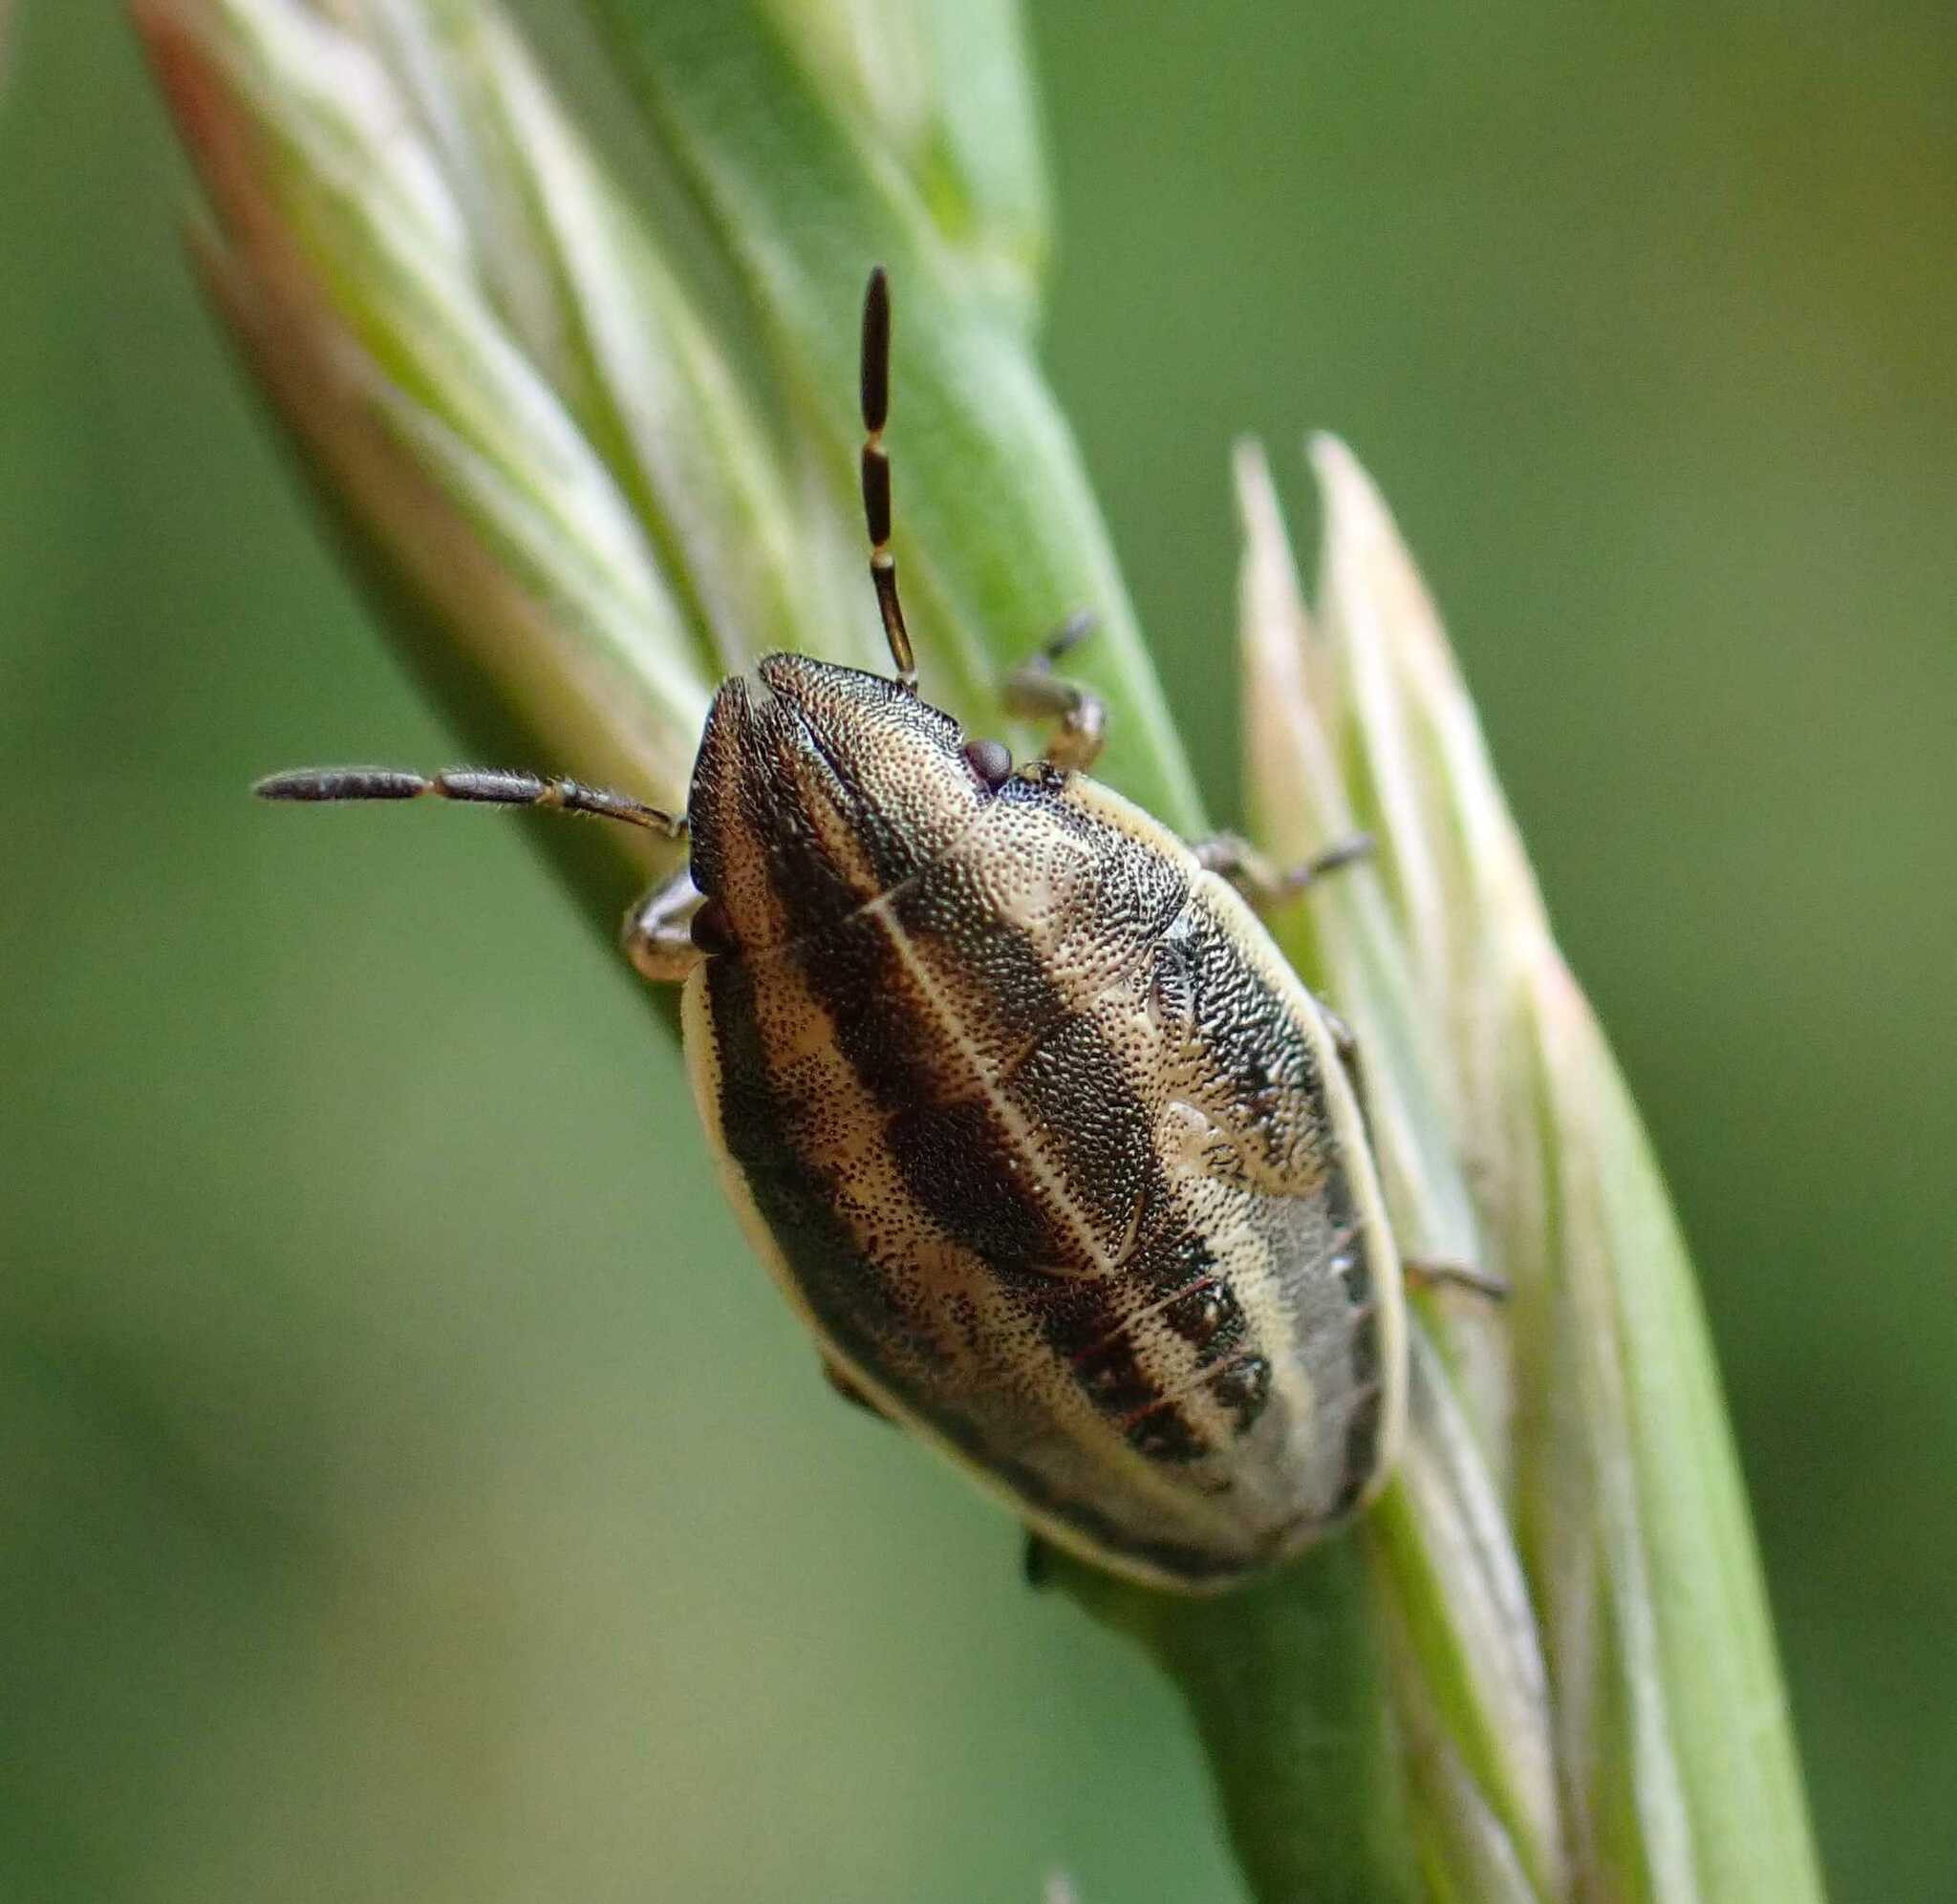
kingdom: Animalia
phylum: Arthropoda
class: Insecta
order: Hemiptera
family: Pentatomidae
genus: Aelia
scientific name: Aelia acuminata
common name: Bishop's mitre
